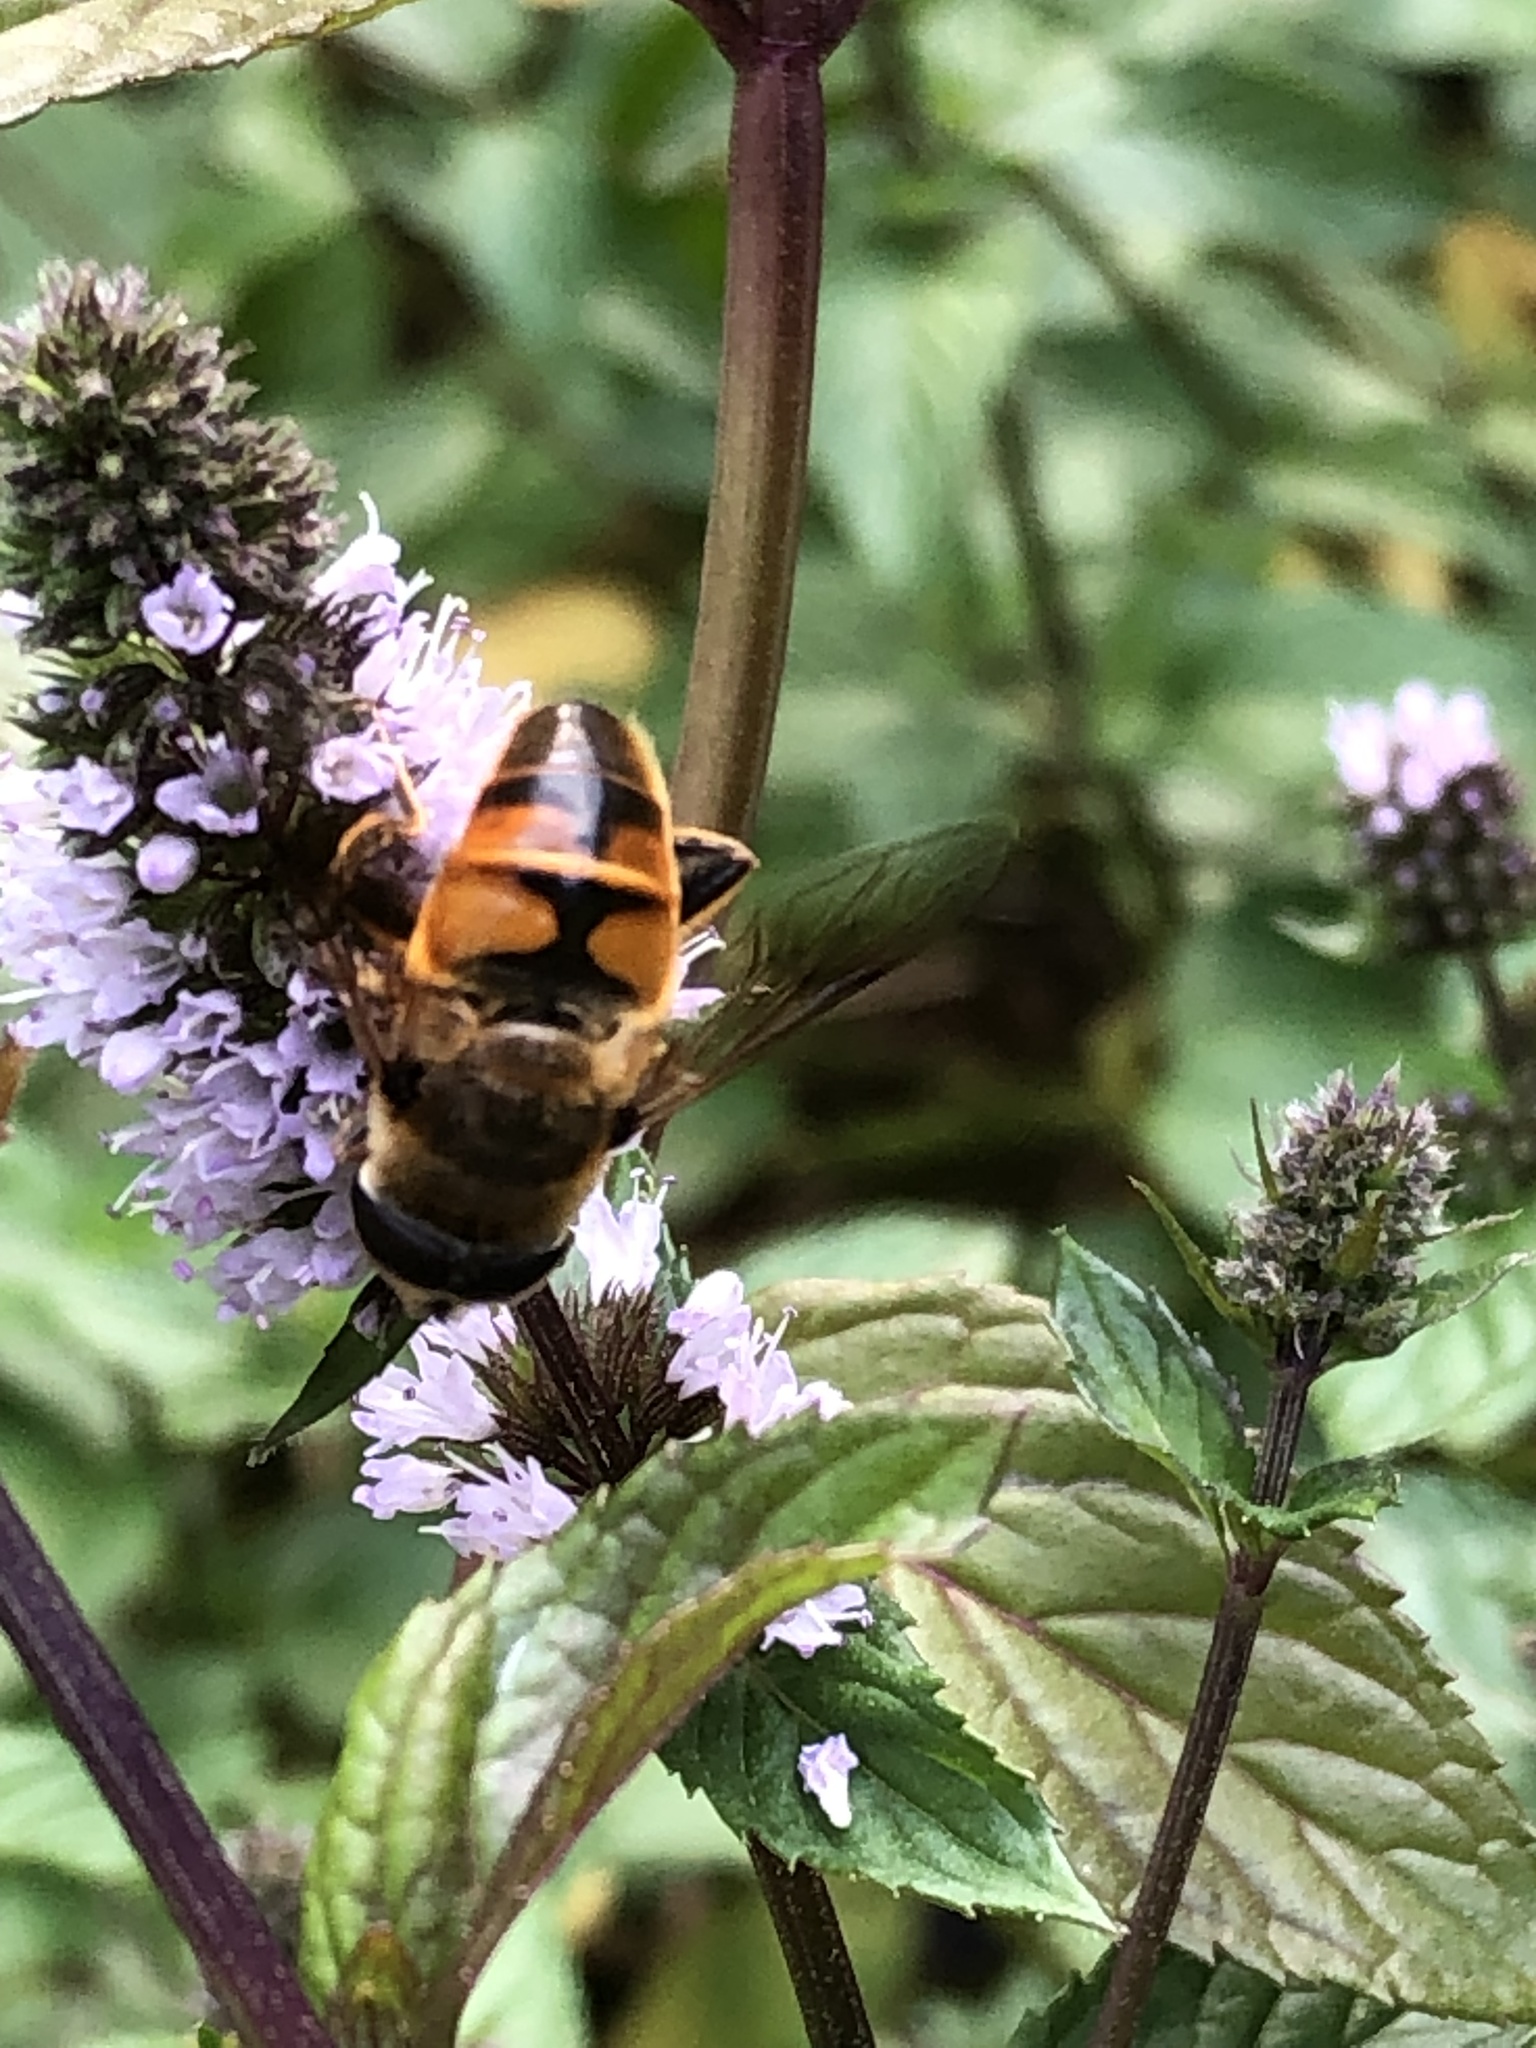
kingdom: Animalia
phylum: Arthropoda
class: Insecta
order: Diptera
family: Syrphidae
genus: Eristalis
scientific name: Eristalis tenax
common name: Drone fly
